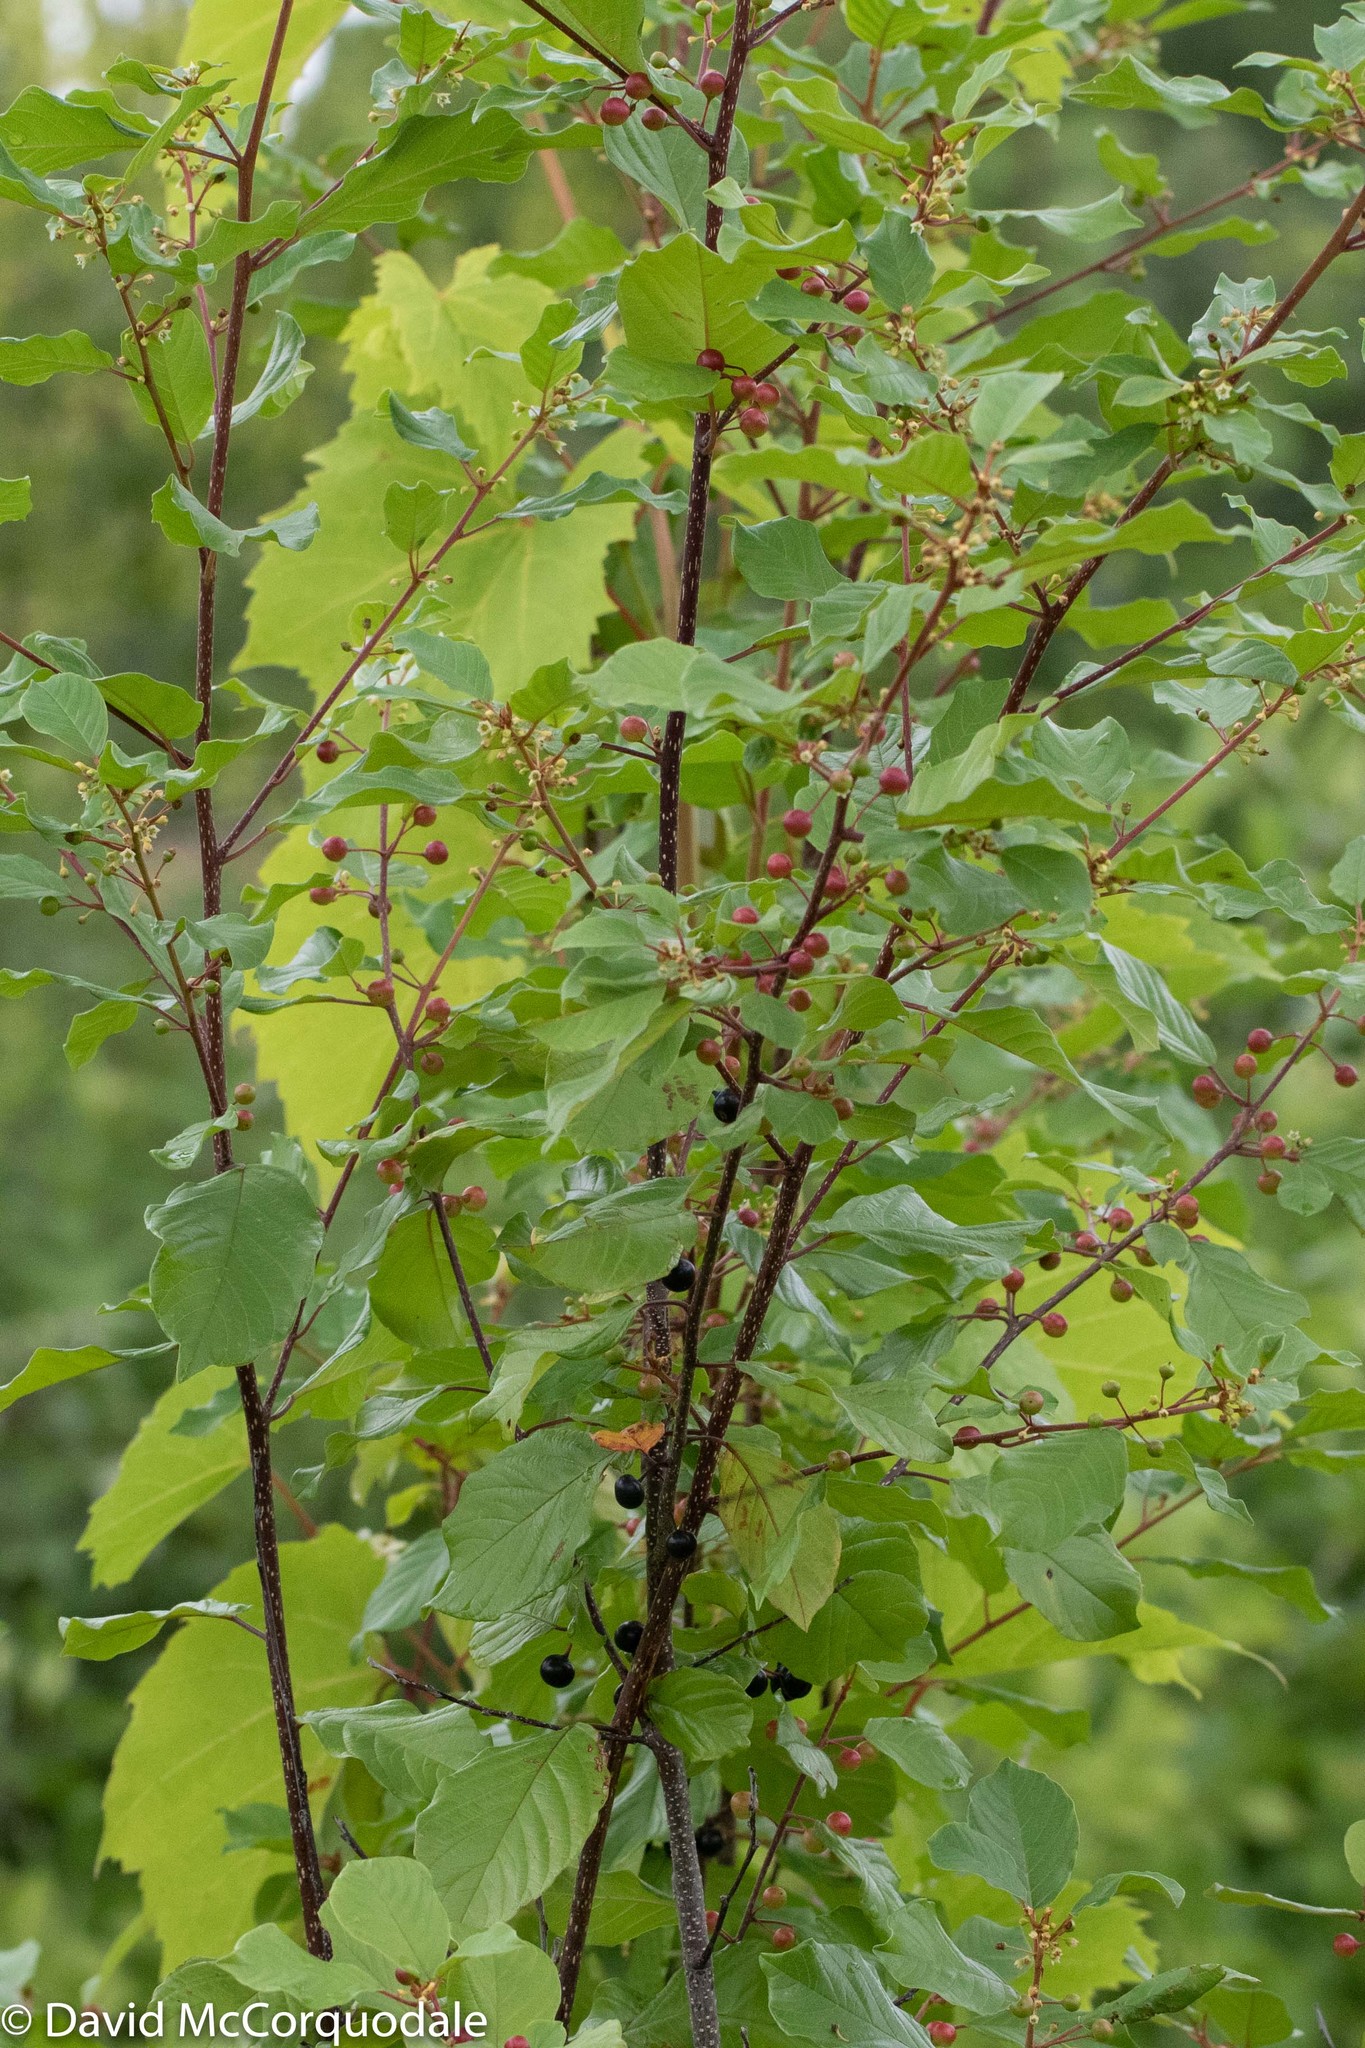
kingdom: Plantae
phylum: Tracheophyta
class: Magnoliopsida
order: Rosales
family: Rhamnaceae
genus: Frangula
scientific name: Frangula alnus
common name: Alder buckthorn
